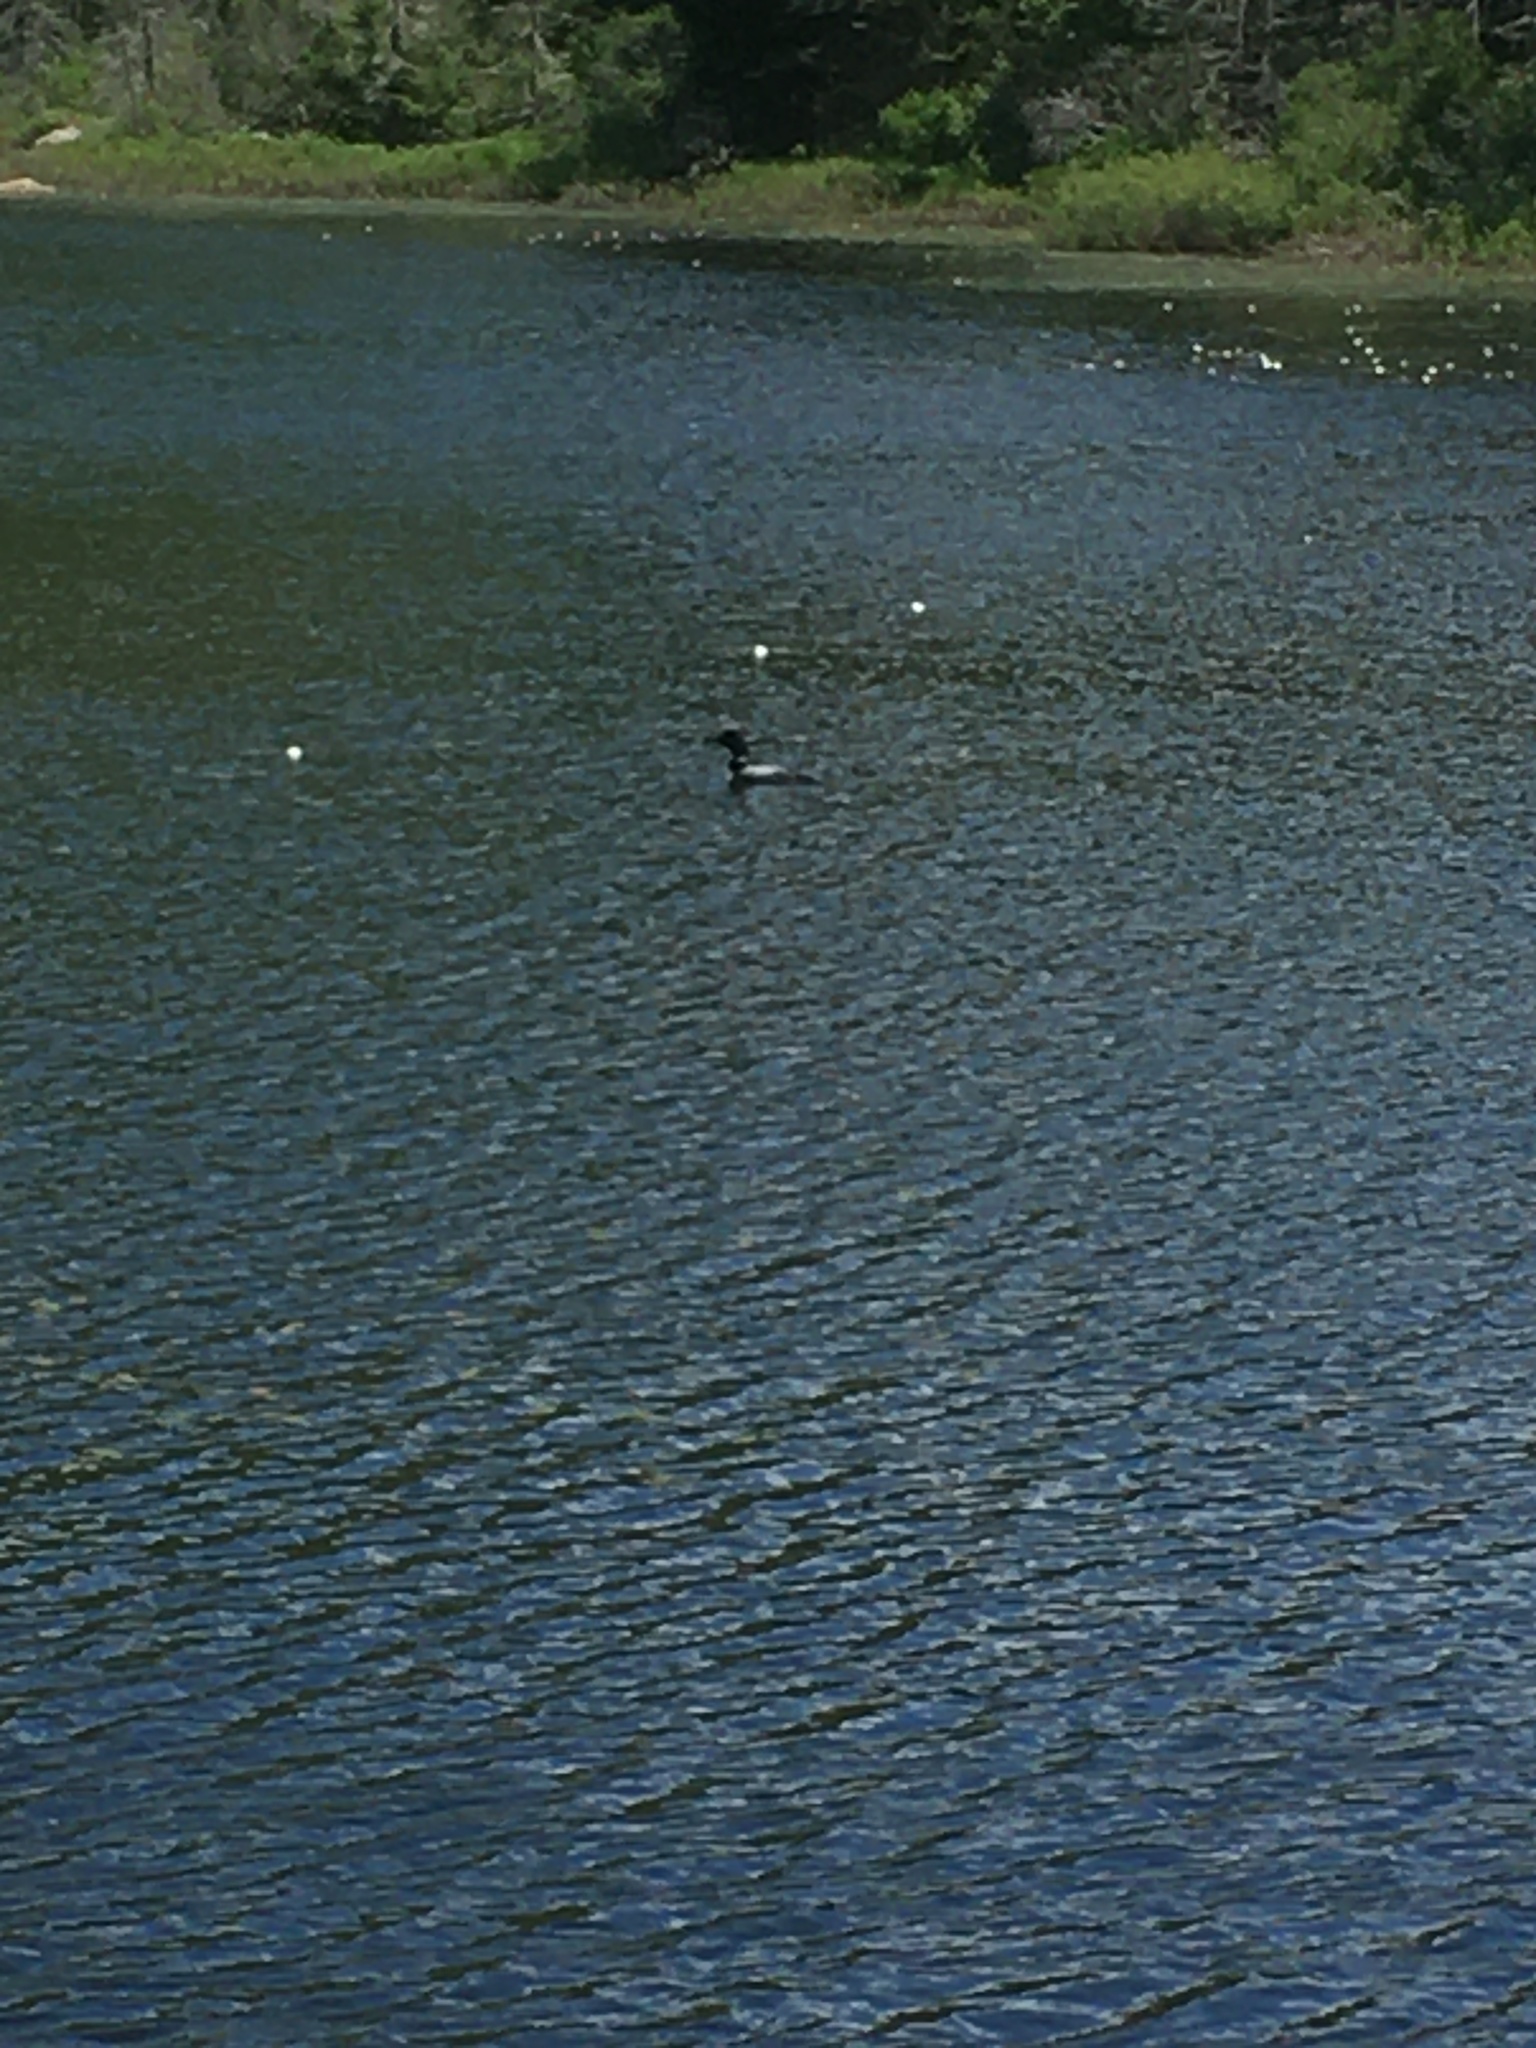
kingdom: Animalia
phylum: Chordata
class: Aves
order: Gaviiformes
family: Gaviidae
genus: Gavia
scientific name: Gavia immer
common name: Common loon
